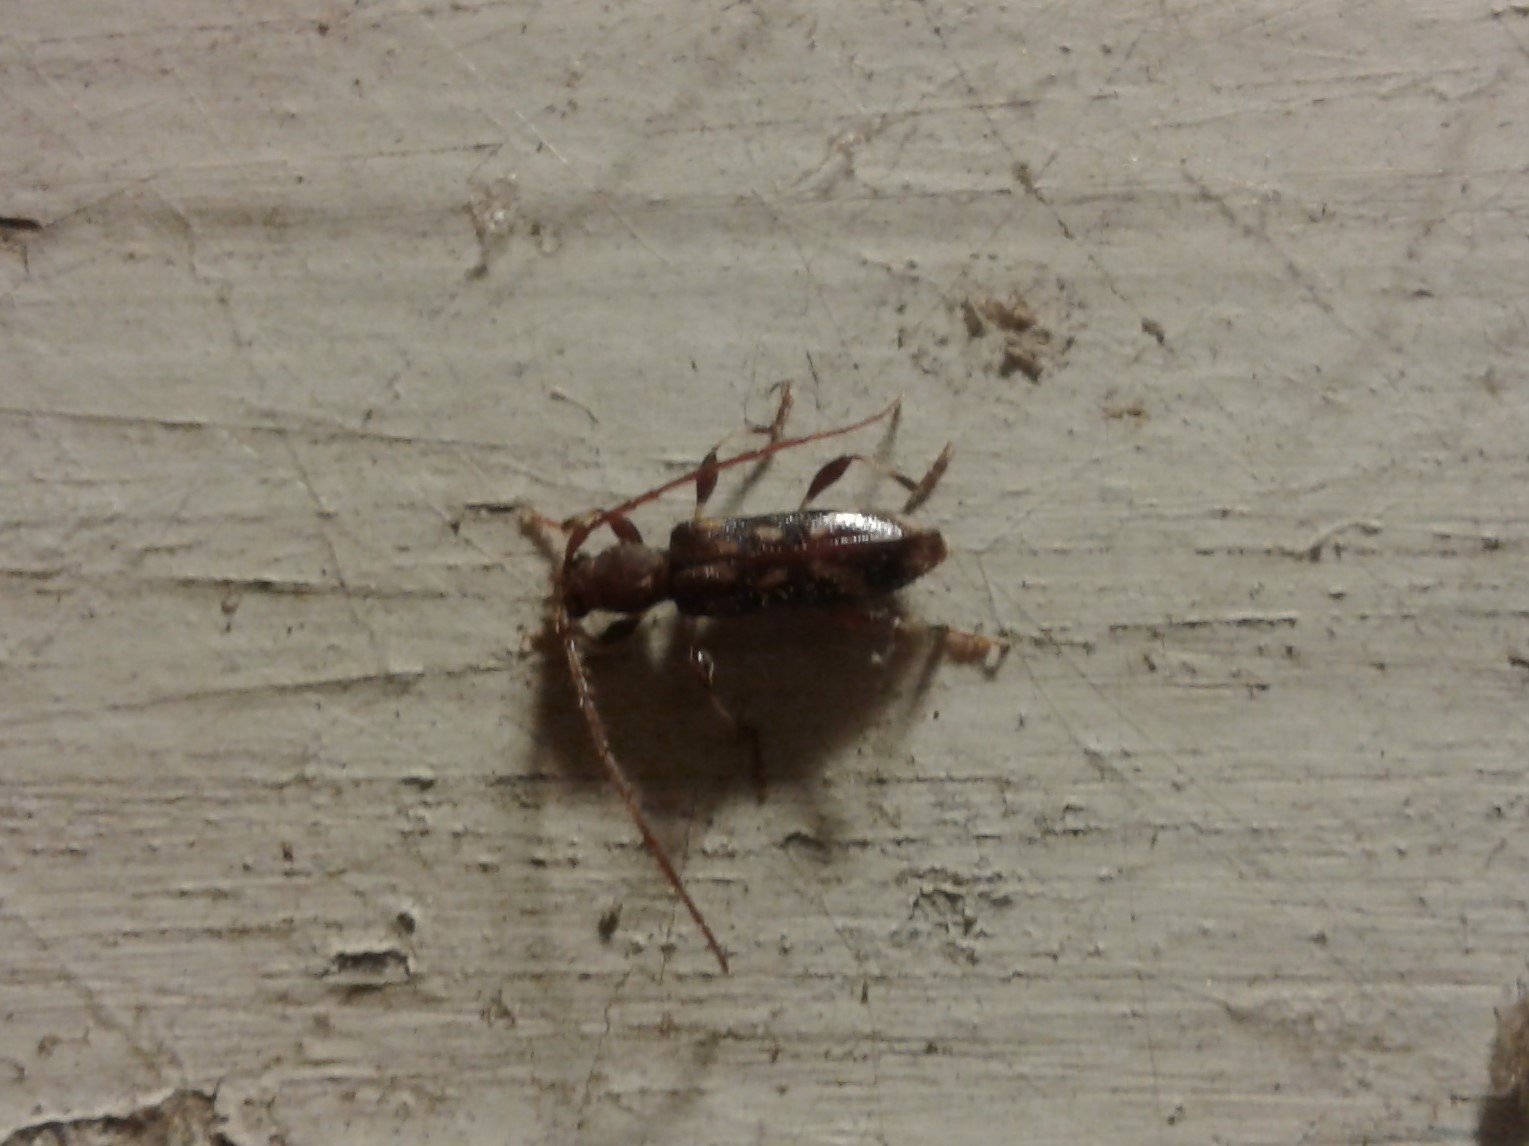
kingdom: Animalia
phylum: Arthropoda
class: Insecta
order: Coleoptera
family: Cerambycidae
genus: Bethelium
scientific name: Bethelium signiferum
